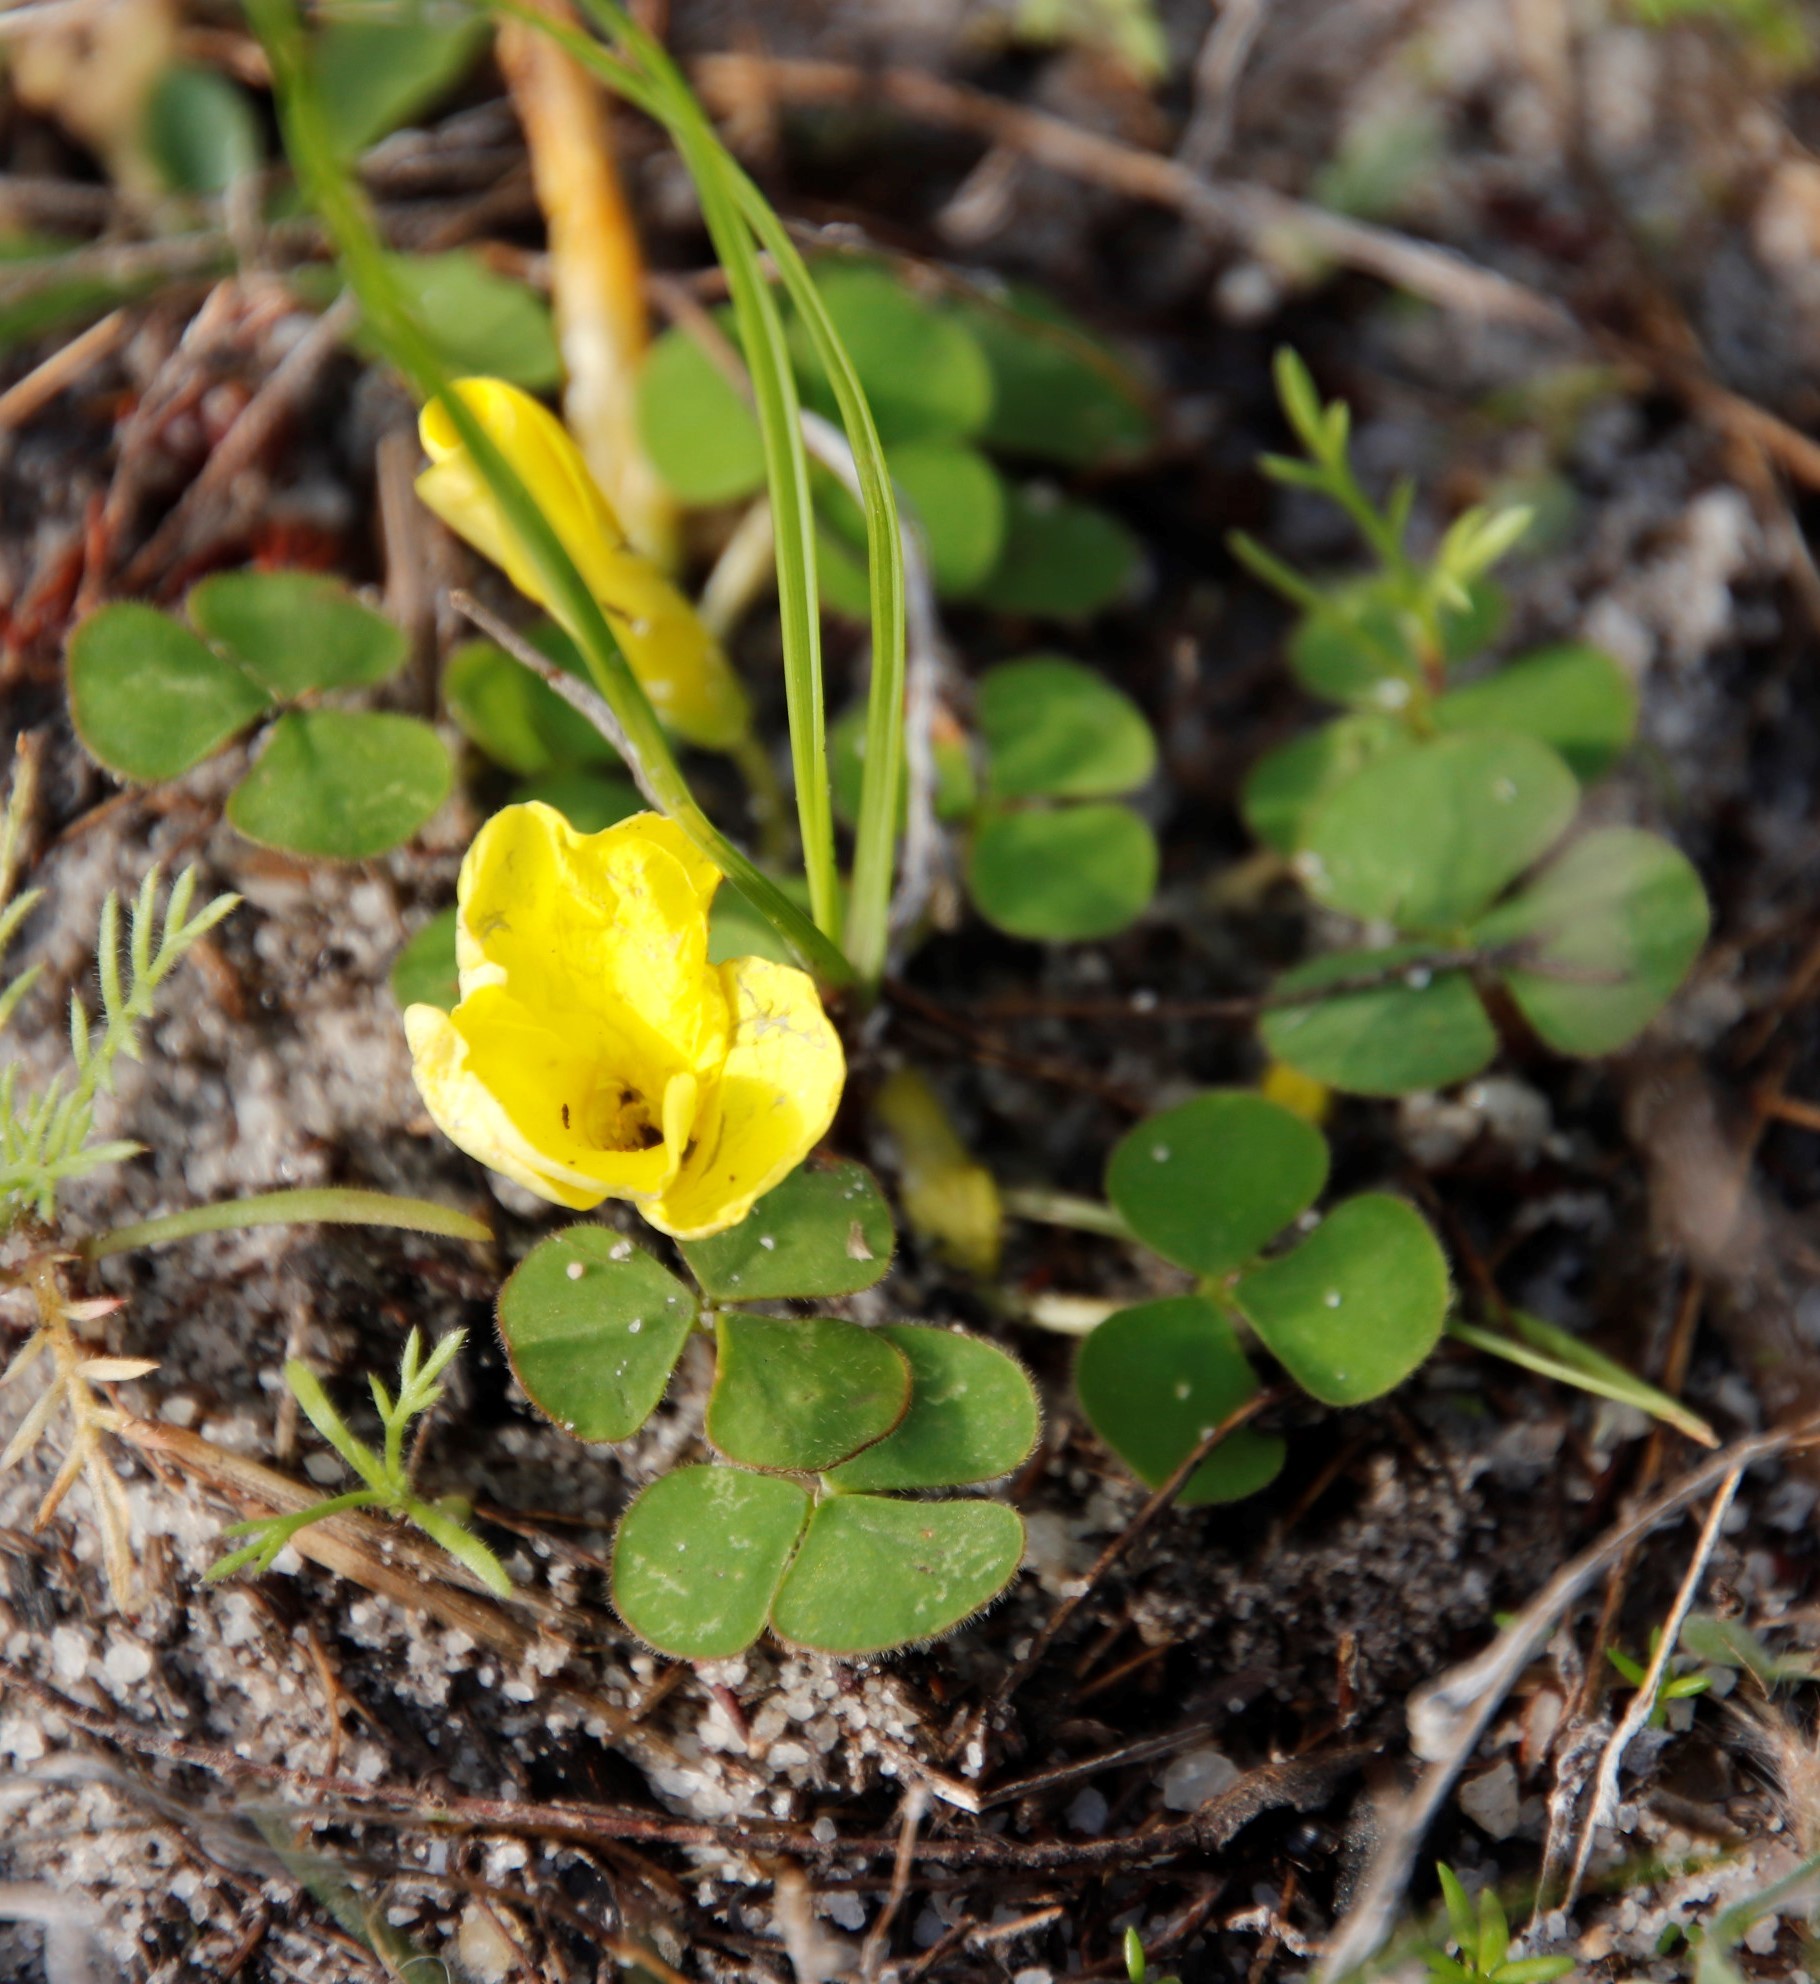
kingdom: Plantae
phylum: Tracheophyta
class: Magnoliopsida
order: Oxalidales
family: Oxalidaceae
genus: Oxalis
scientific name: Oxalis luteola
